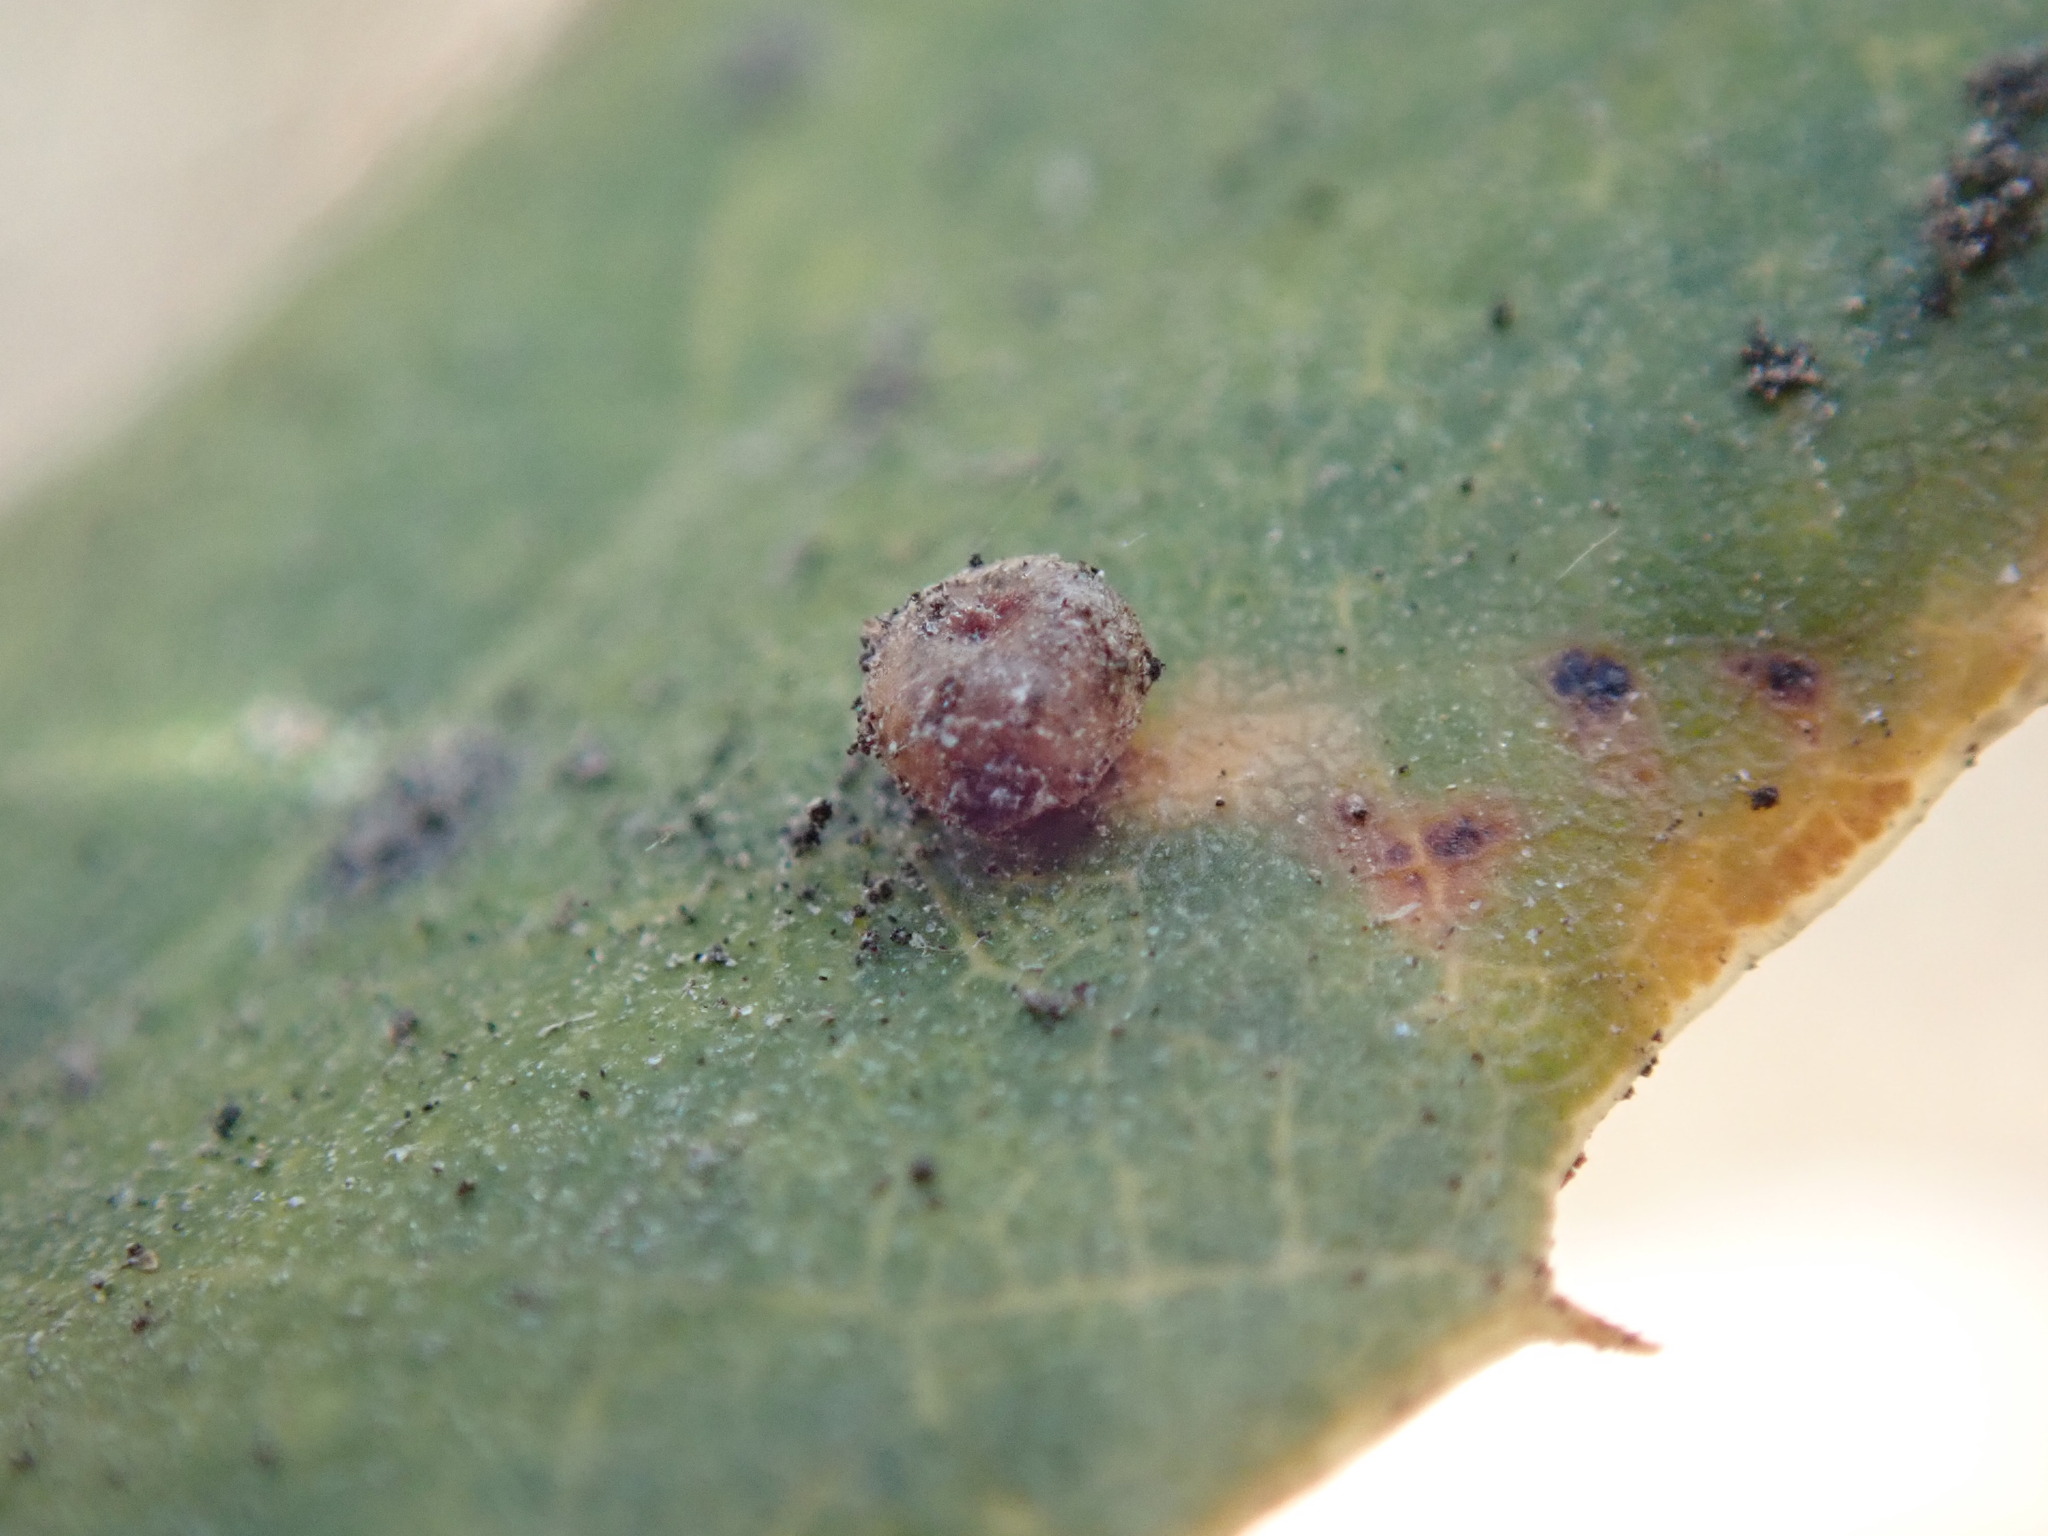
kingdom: Animalia
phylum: Arthropoda
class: Insecta
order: Hymenoptera
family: Cynipidae
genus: Dryocosmus
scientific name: Dryocosmus
